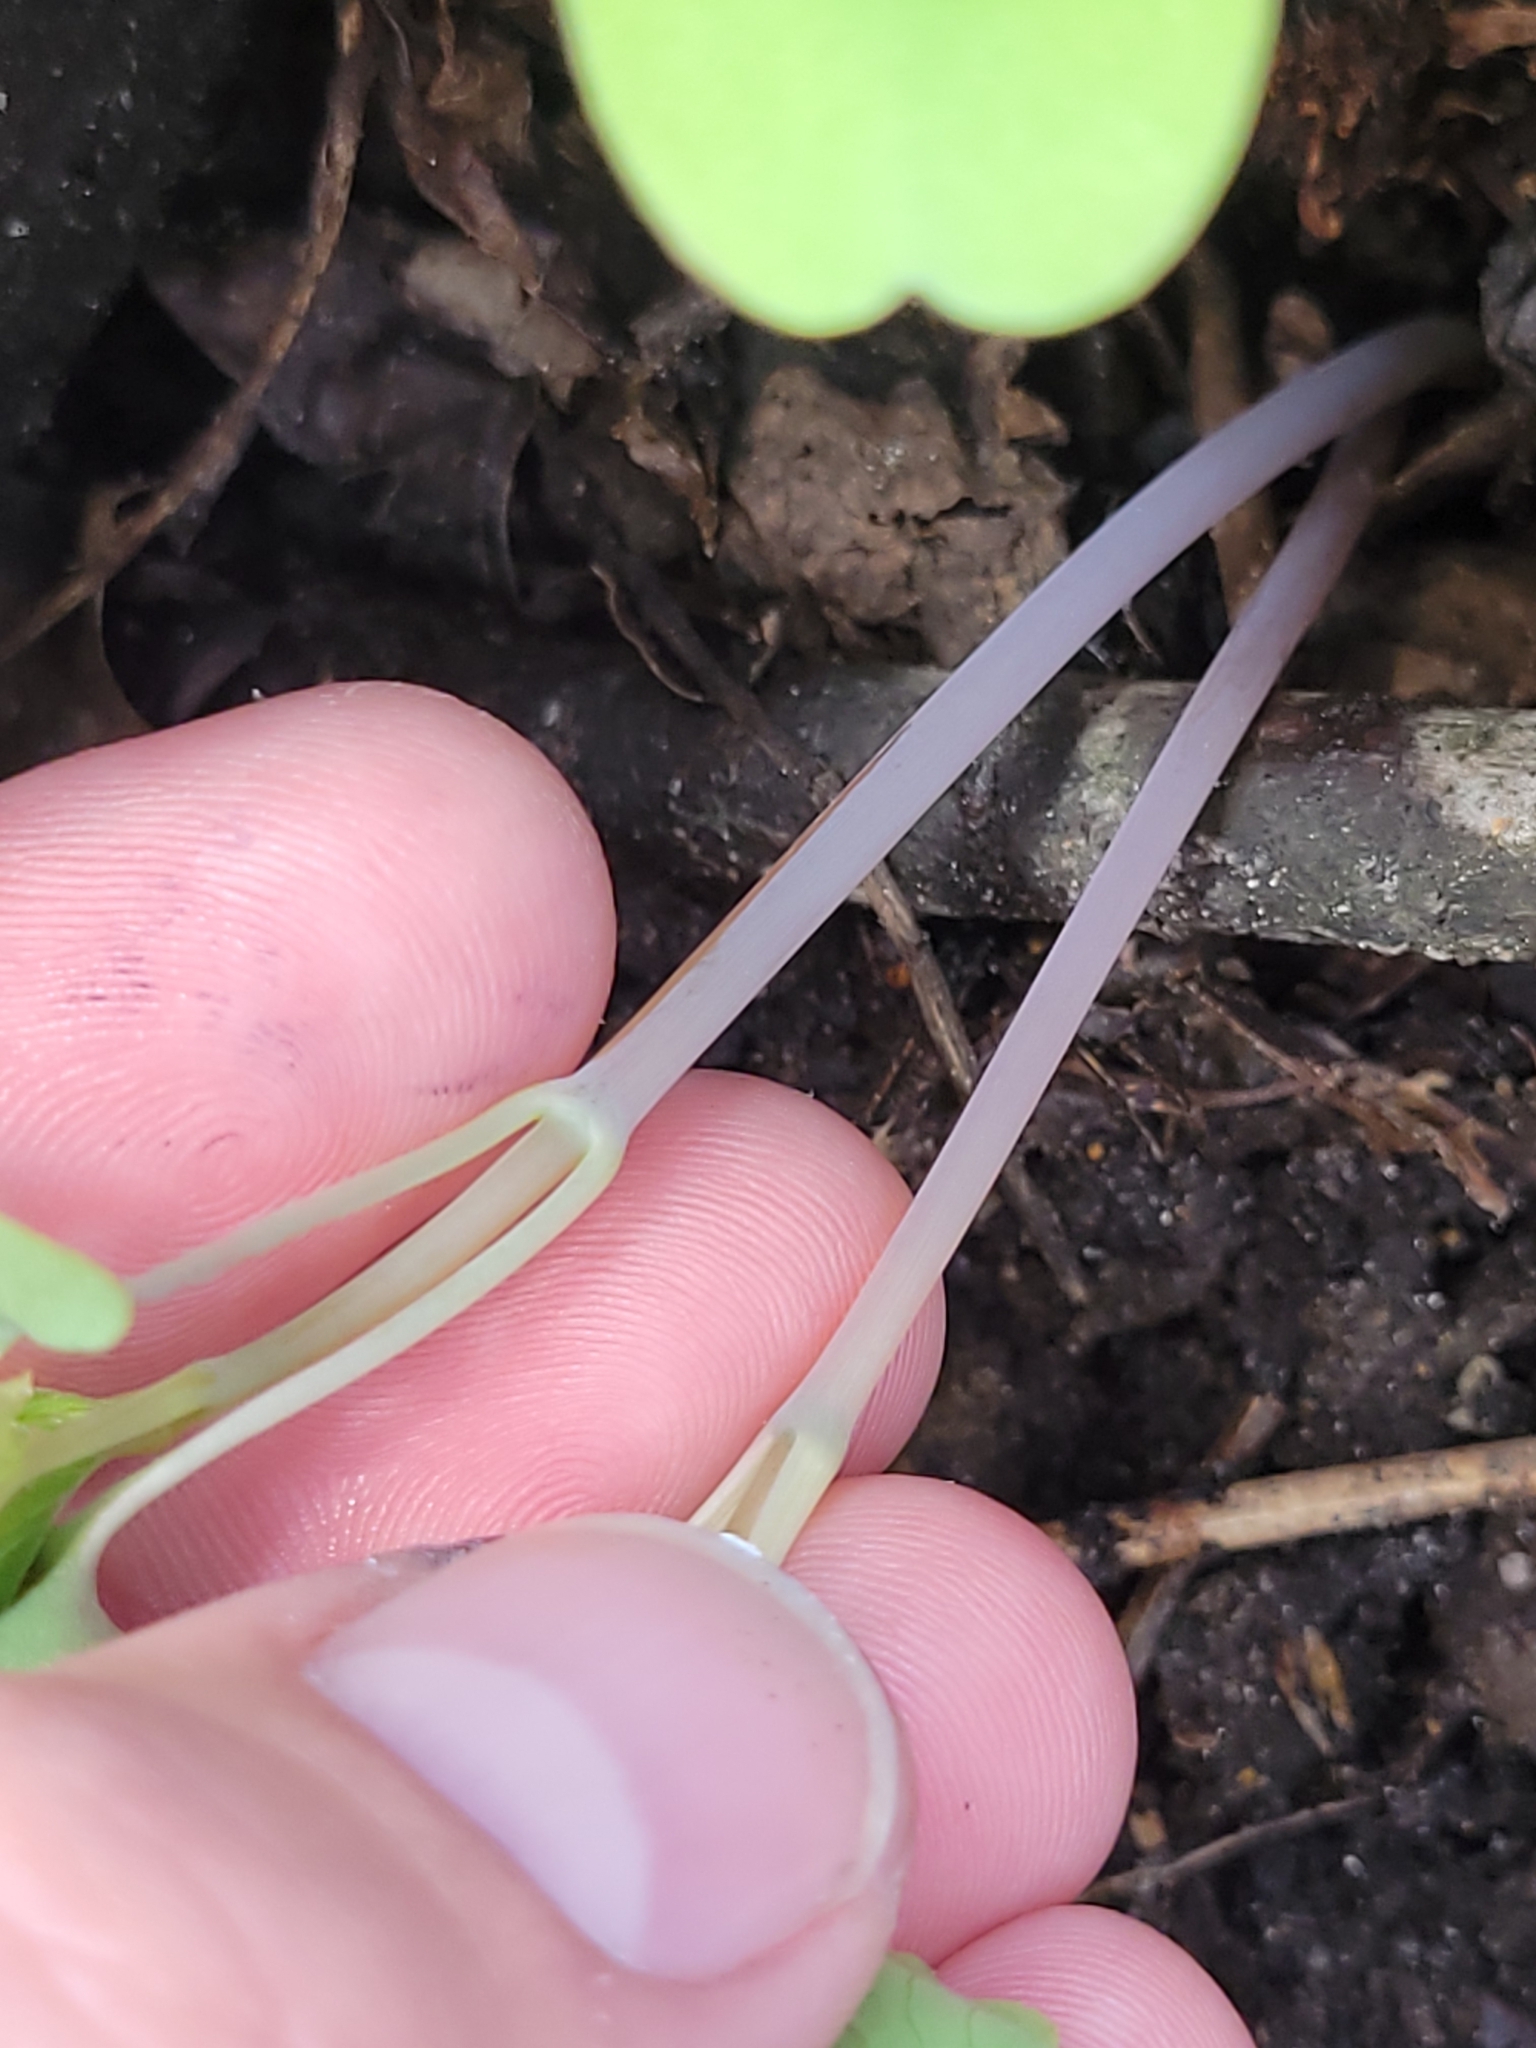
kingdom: Plantae
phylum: Tracheophyta
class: Magnoliopsida
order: Ericales
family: Balsaminaceae
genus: Impatiens
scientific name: Impatiens capensis
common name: Orange balsam
